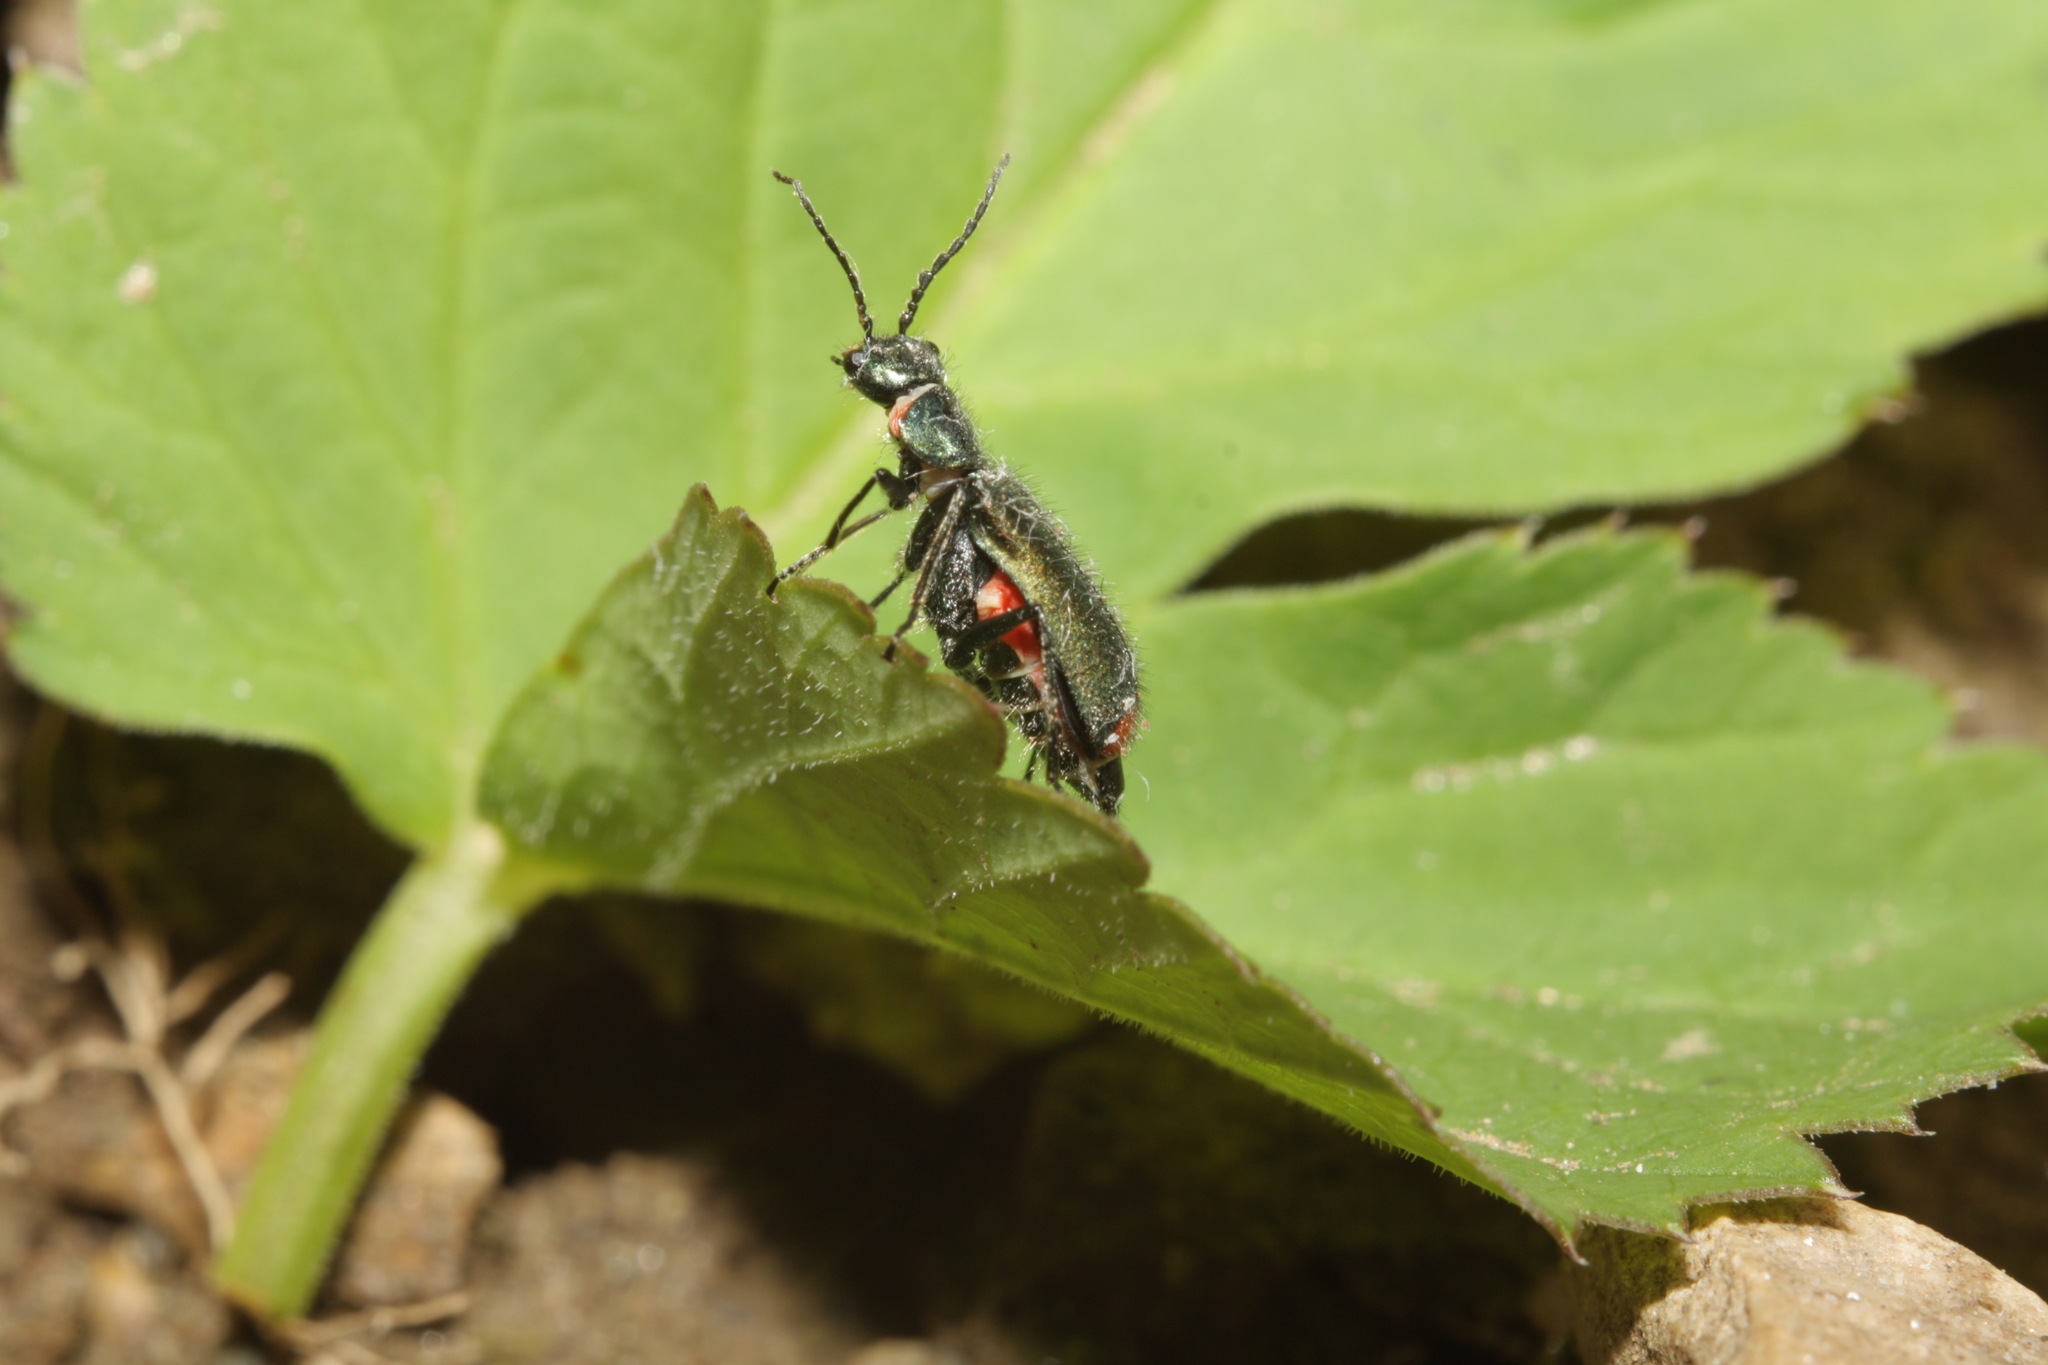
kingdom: Animalia
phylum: Arthropoda
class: Insecta
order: Coleoptera
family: Melyridae
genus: Malachius
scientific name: Malachius bipustulatus
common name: Malachite beetle
